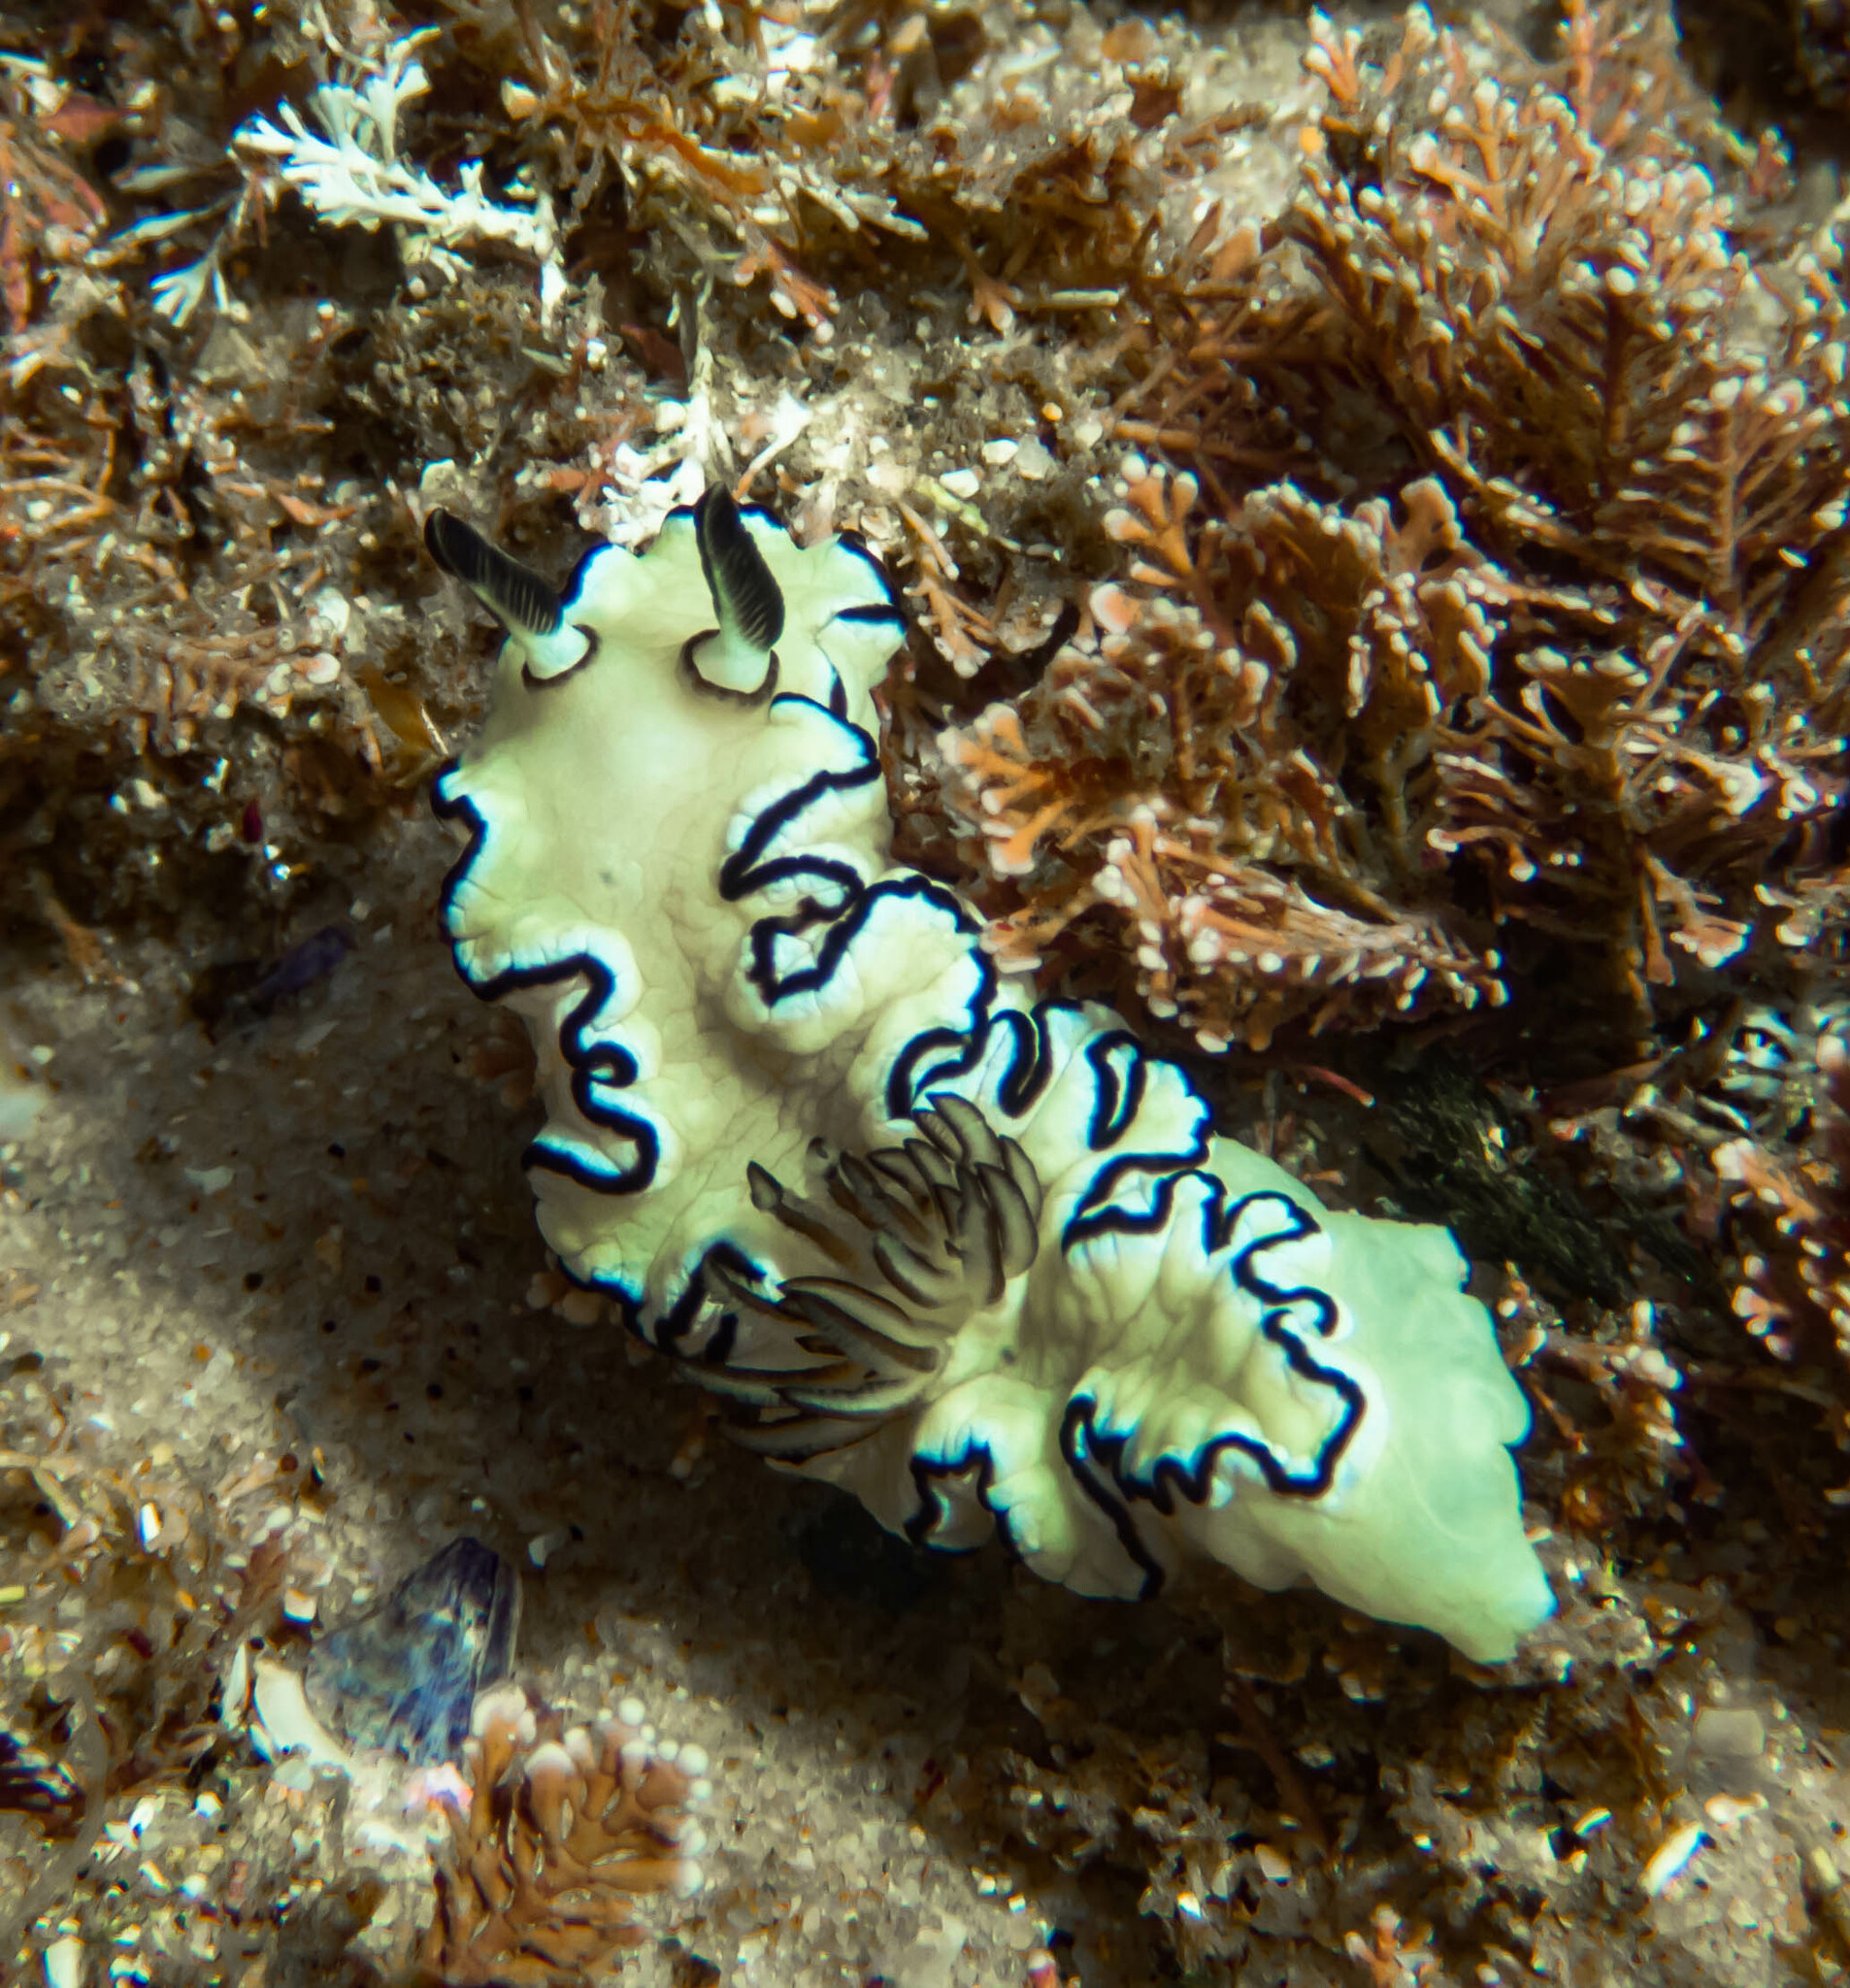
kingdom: Animalia
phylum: Mollusca
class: Gastropoda
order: Nudibranchia
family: Chromodorididae
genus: Doriprismatica
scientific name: Doriprismatica atromarginata
